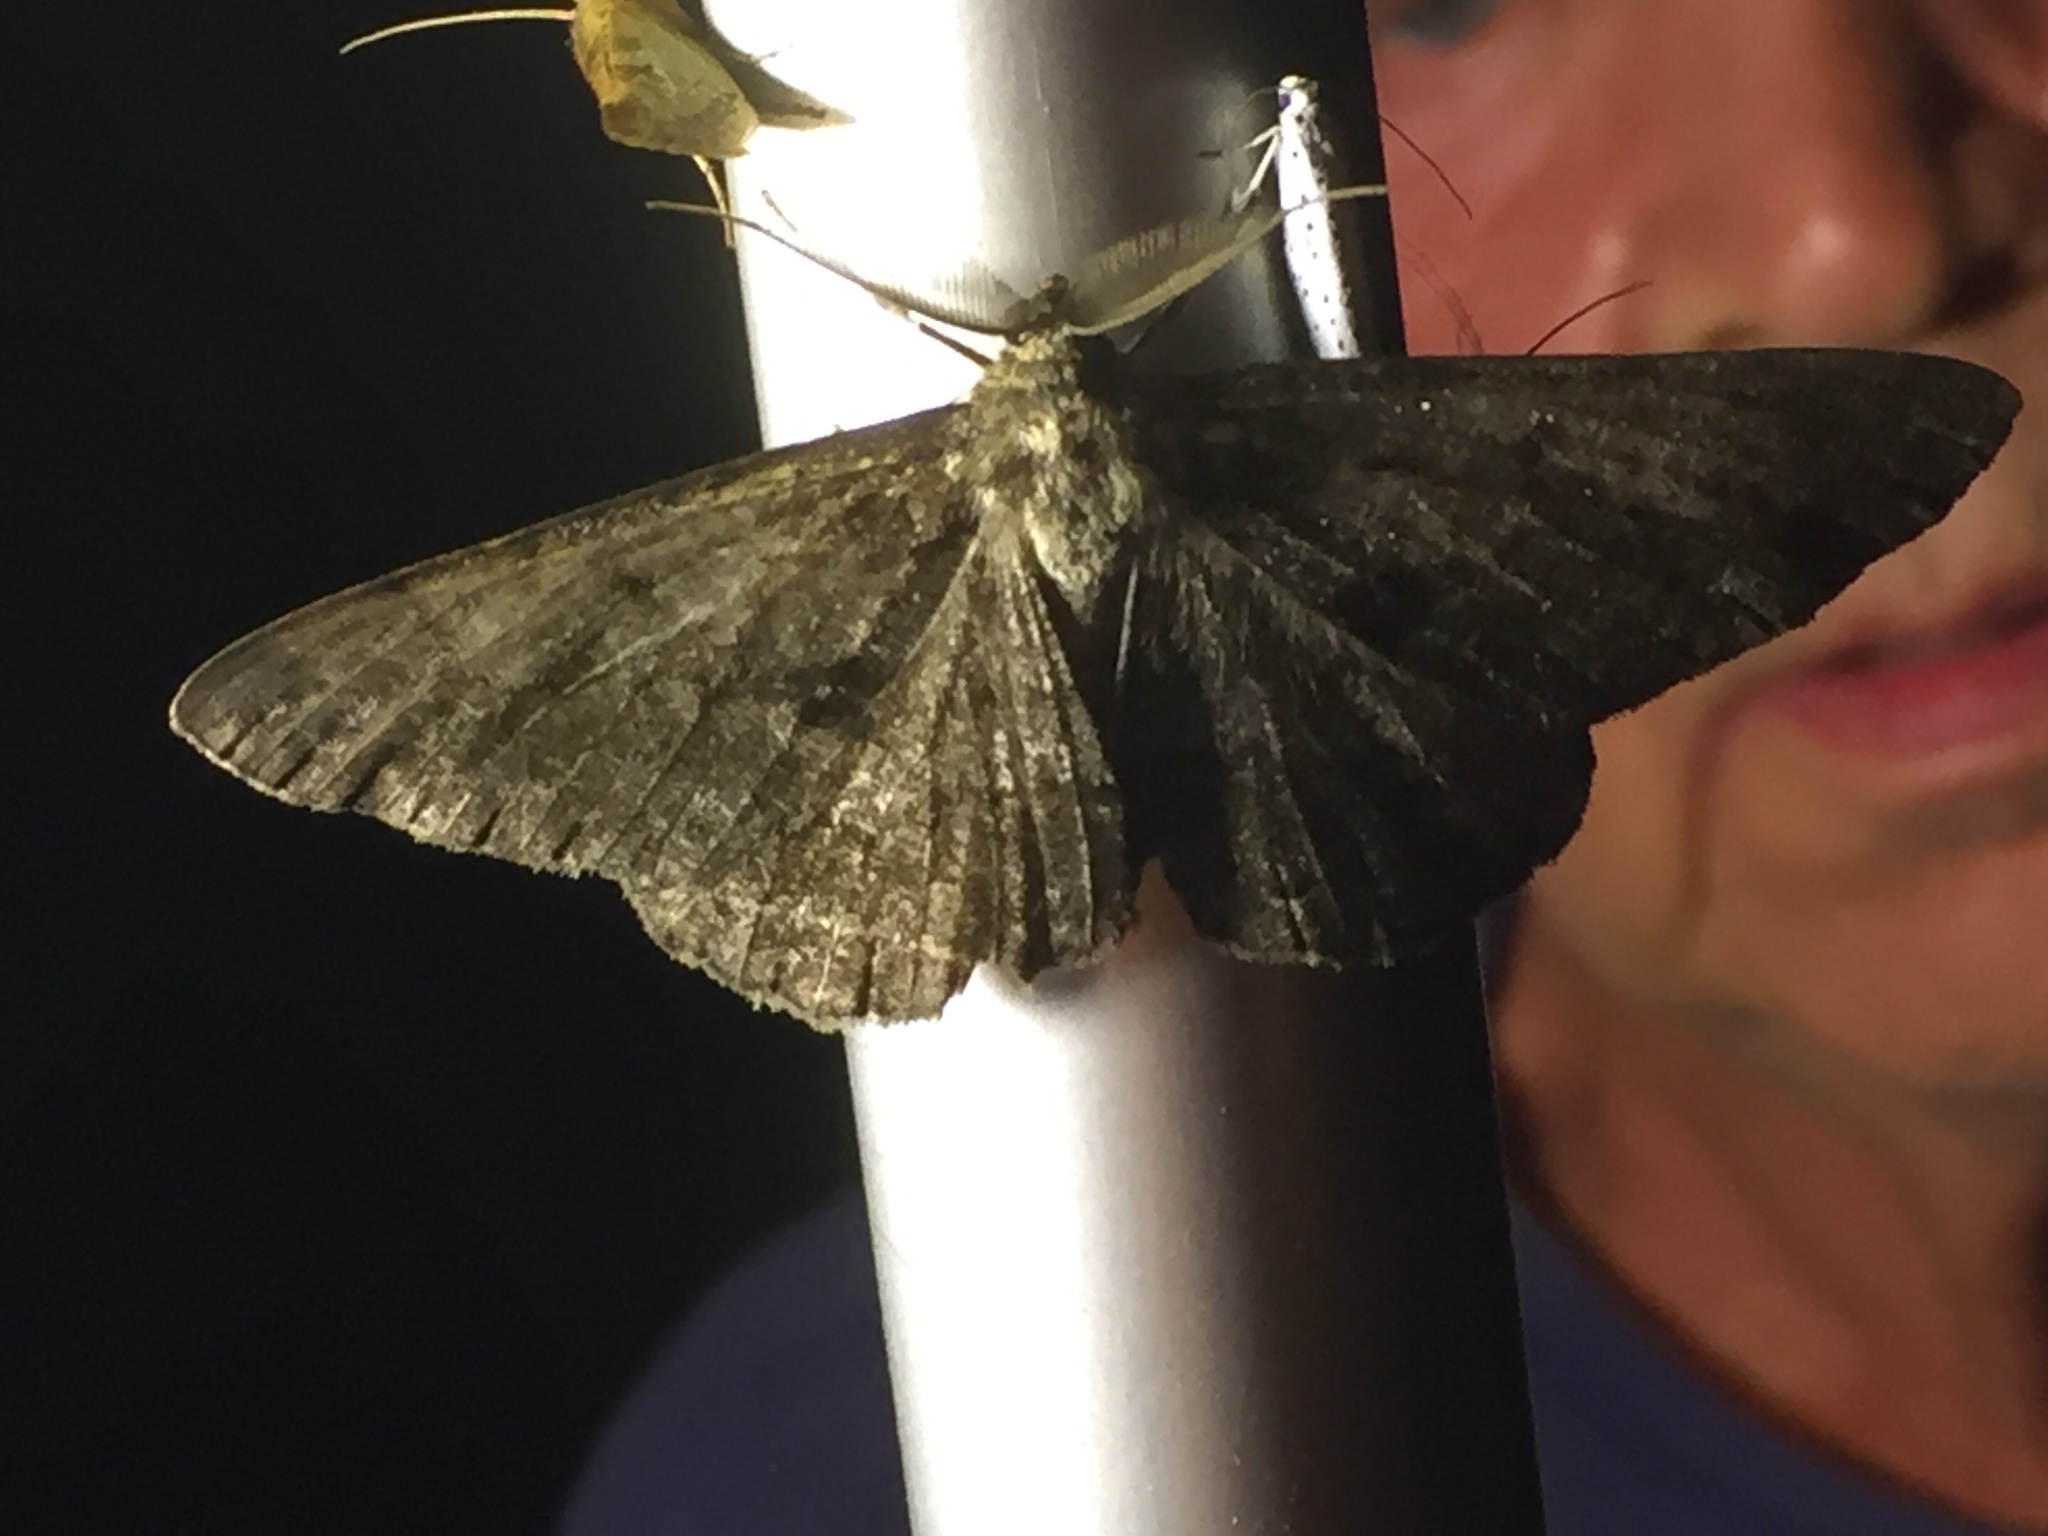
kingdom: Animalia
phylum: Arthropoda
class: Insecta
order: Lepidoptera
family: Geometridae
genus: Hypomecis
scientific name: Hypomecis roboraria
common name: Great oak beauty
